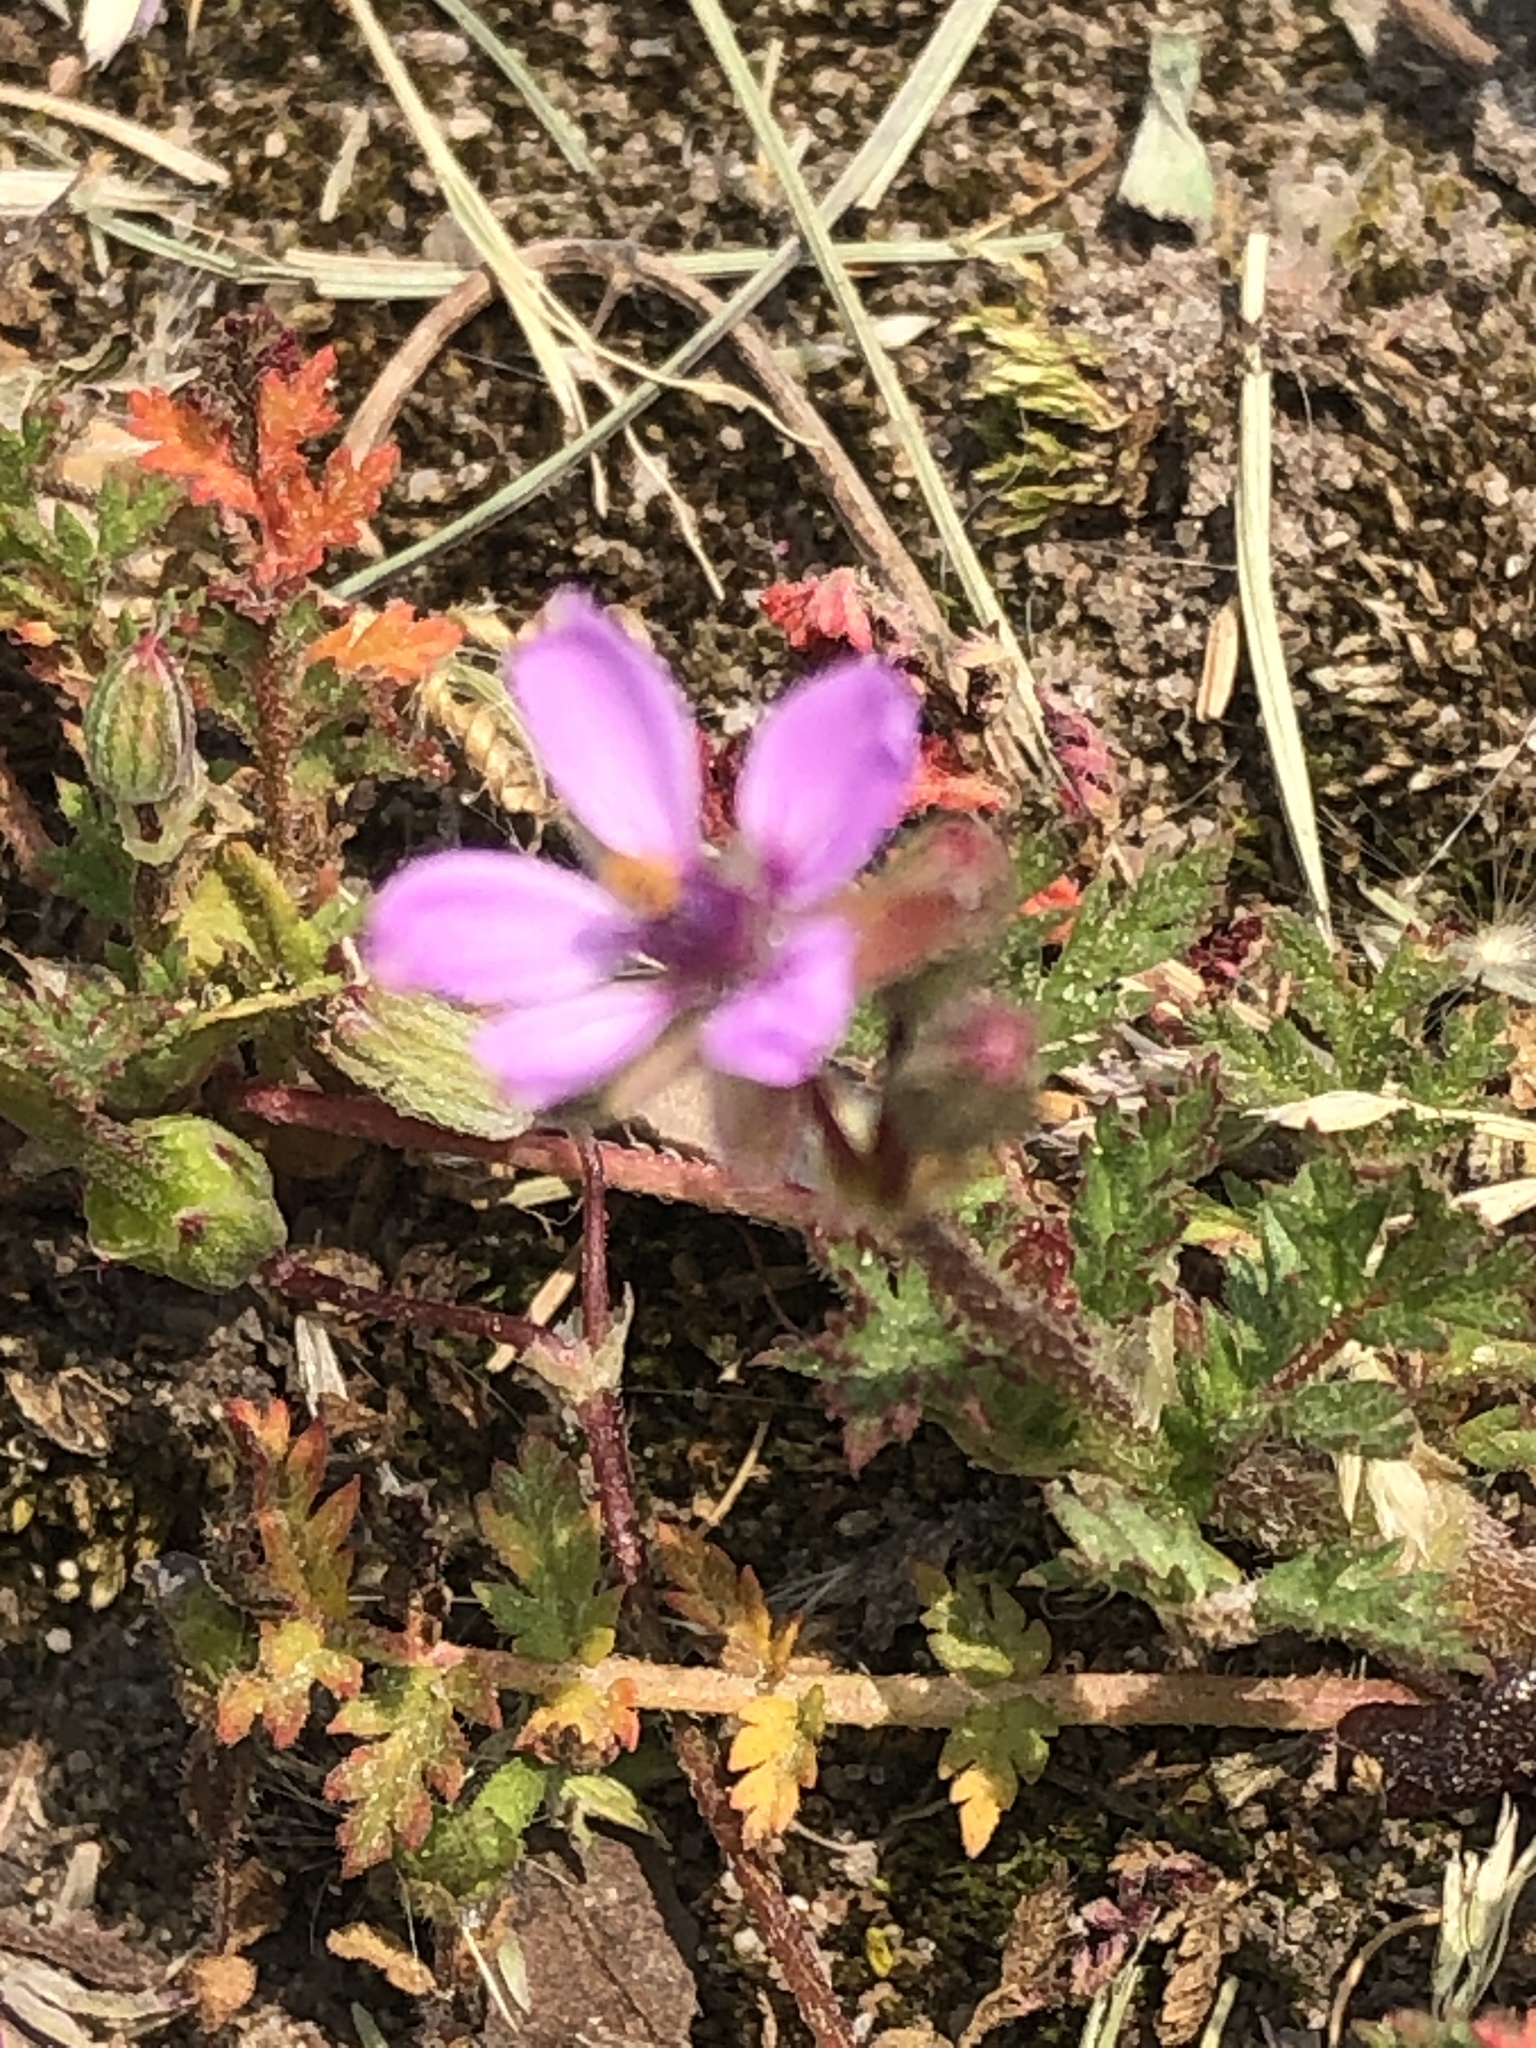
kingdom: Plantae
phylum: Tracheophyta
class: Magnoliopsida
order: Geraniales
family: Geraniaceae
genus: Erodium
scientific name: Erodium cicutarium
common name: Common stork's-bill
